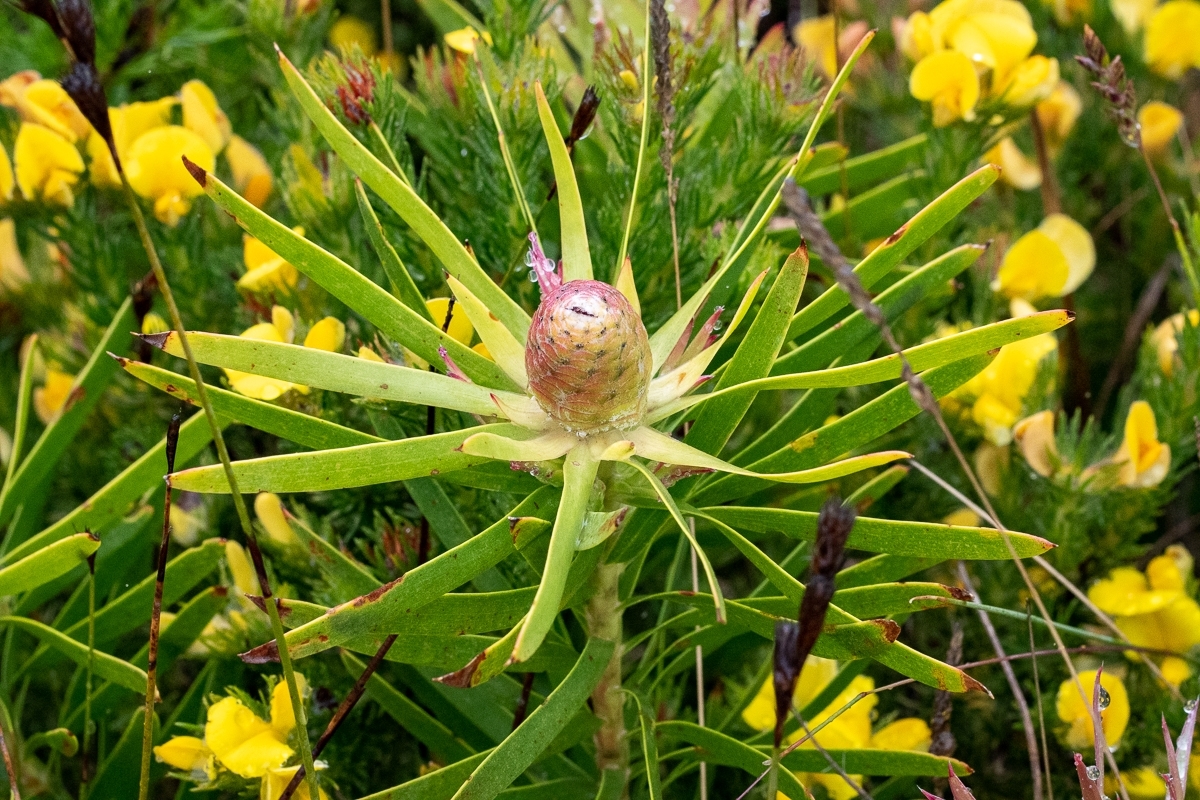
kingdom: Plantae
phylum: Tracheophyta
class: Magnoliopsida
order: Proteales
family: Proteaceae
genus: Leucadendron
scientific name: Leucadendron xanthoconus
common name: Sickle-leaf conebush
